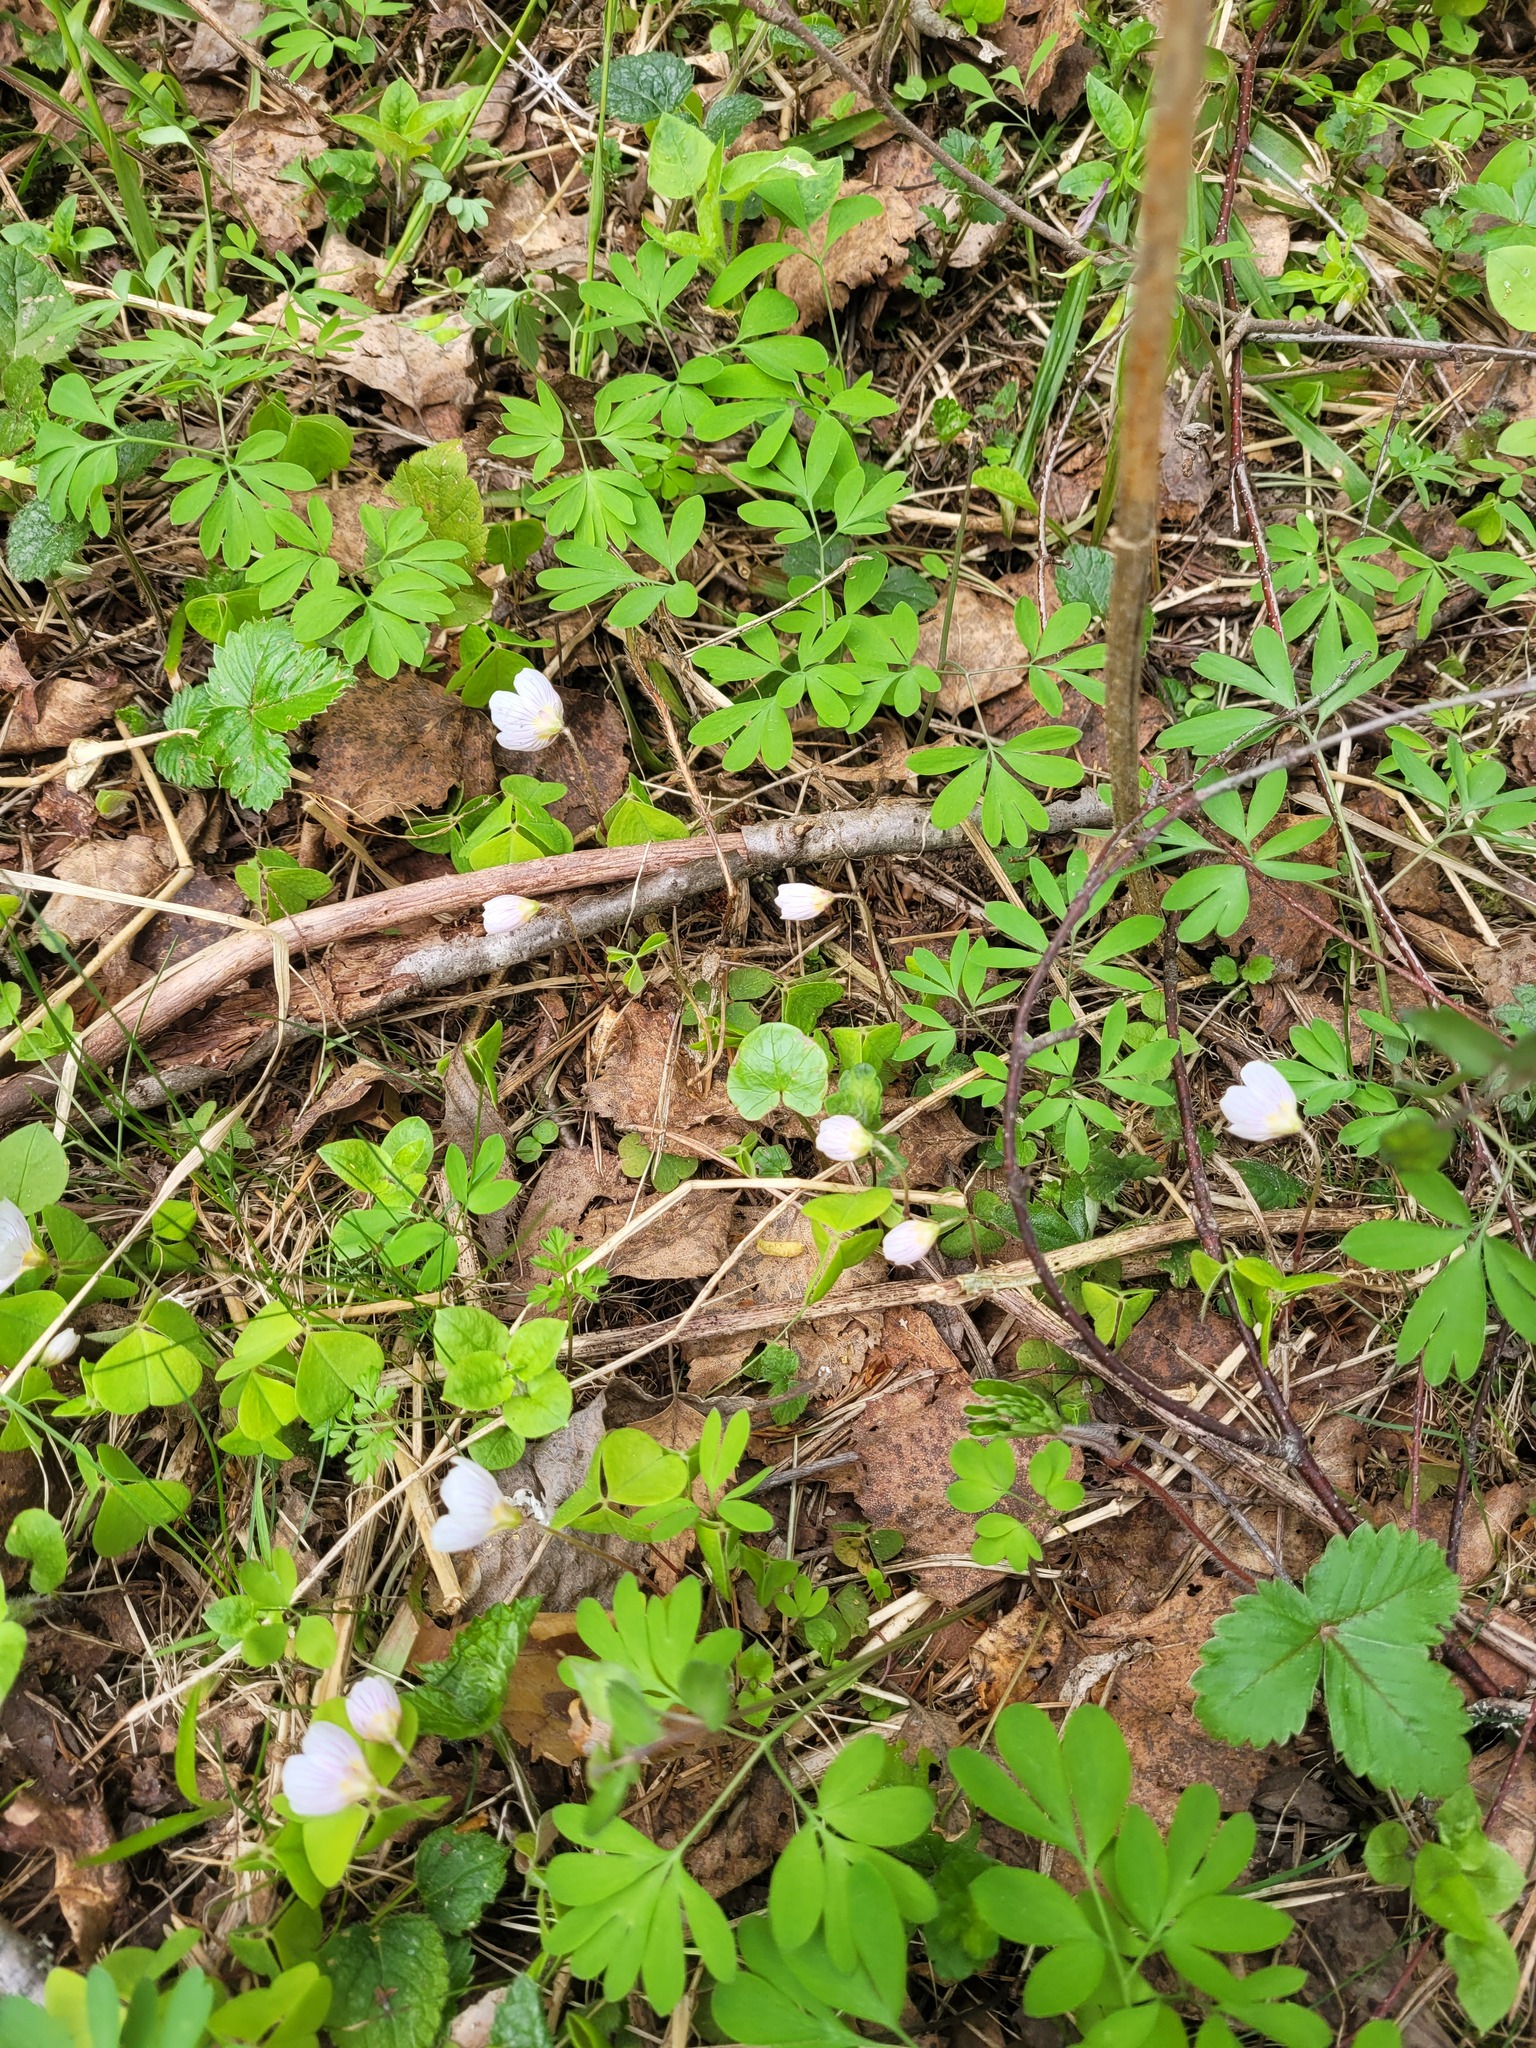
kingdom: Plantae
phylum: Tracheophyta
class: Magnoliopsida
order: Oxalidales
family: Oxalidaceae
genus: Oxalis
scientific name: Oxalis acetosella
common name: Wood-sorrel
